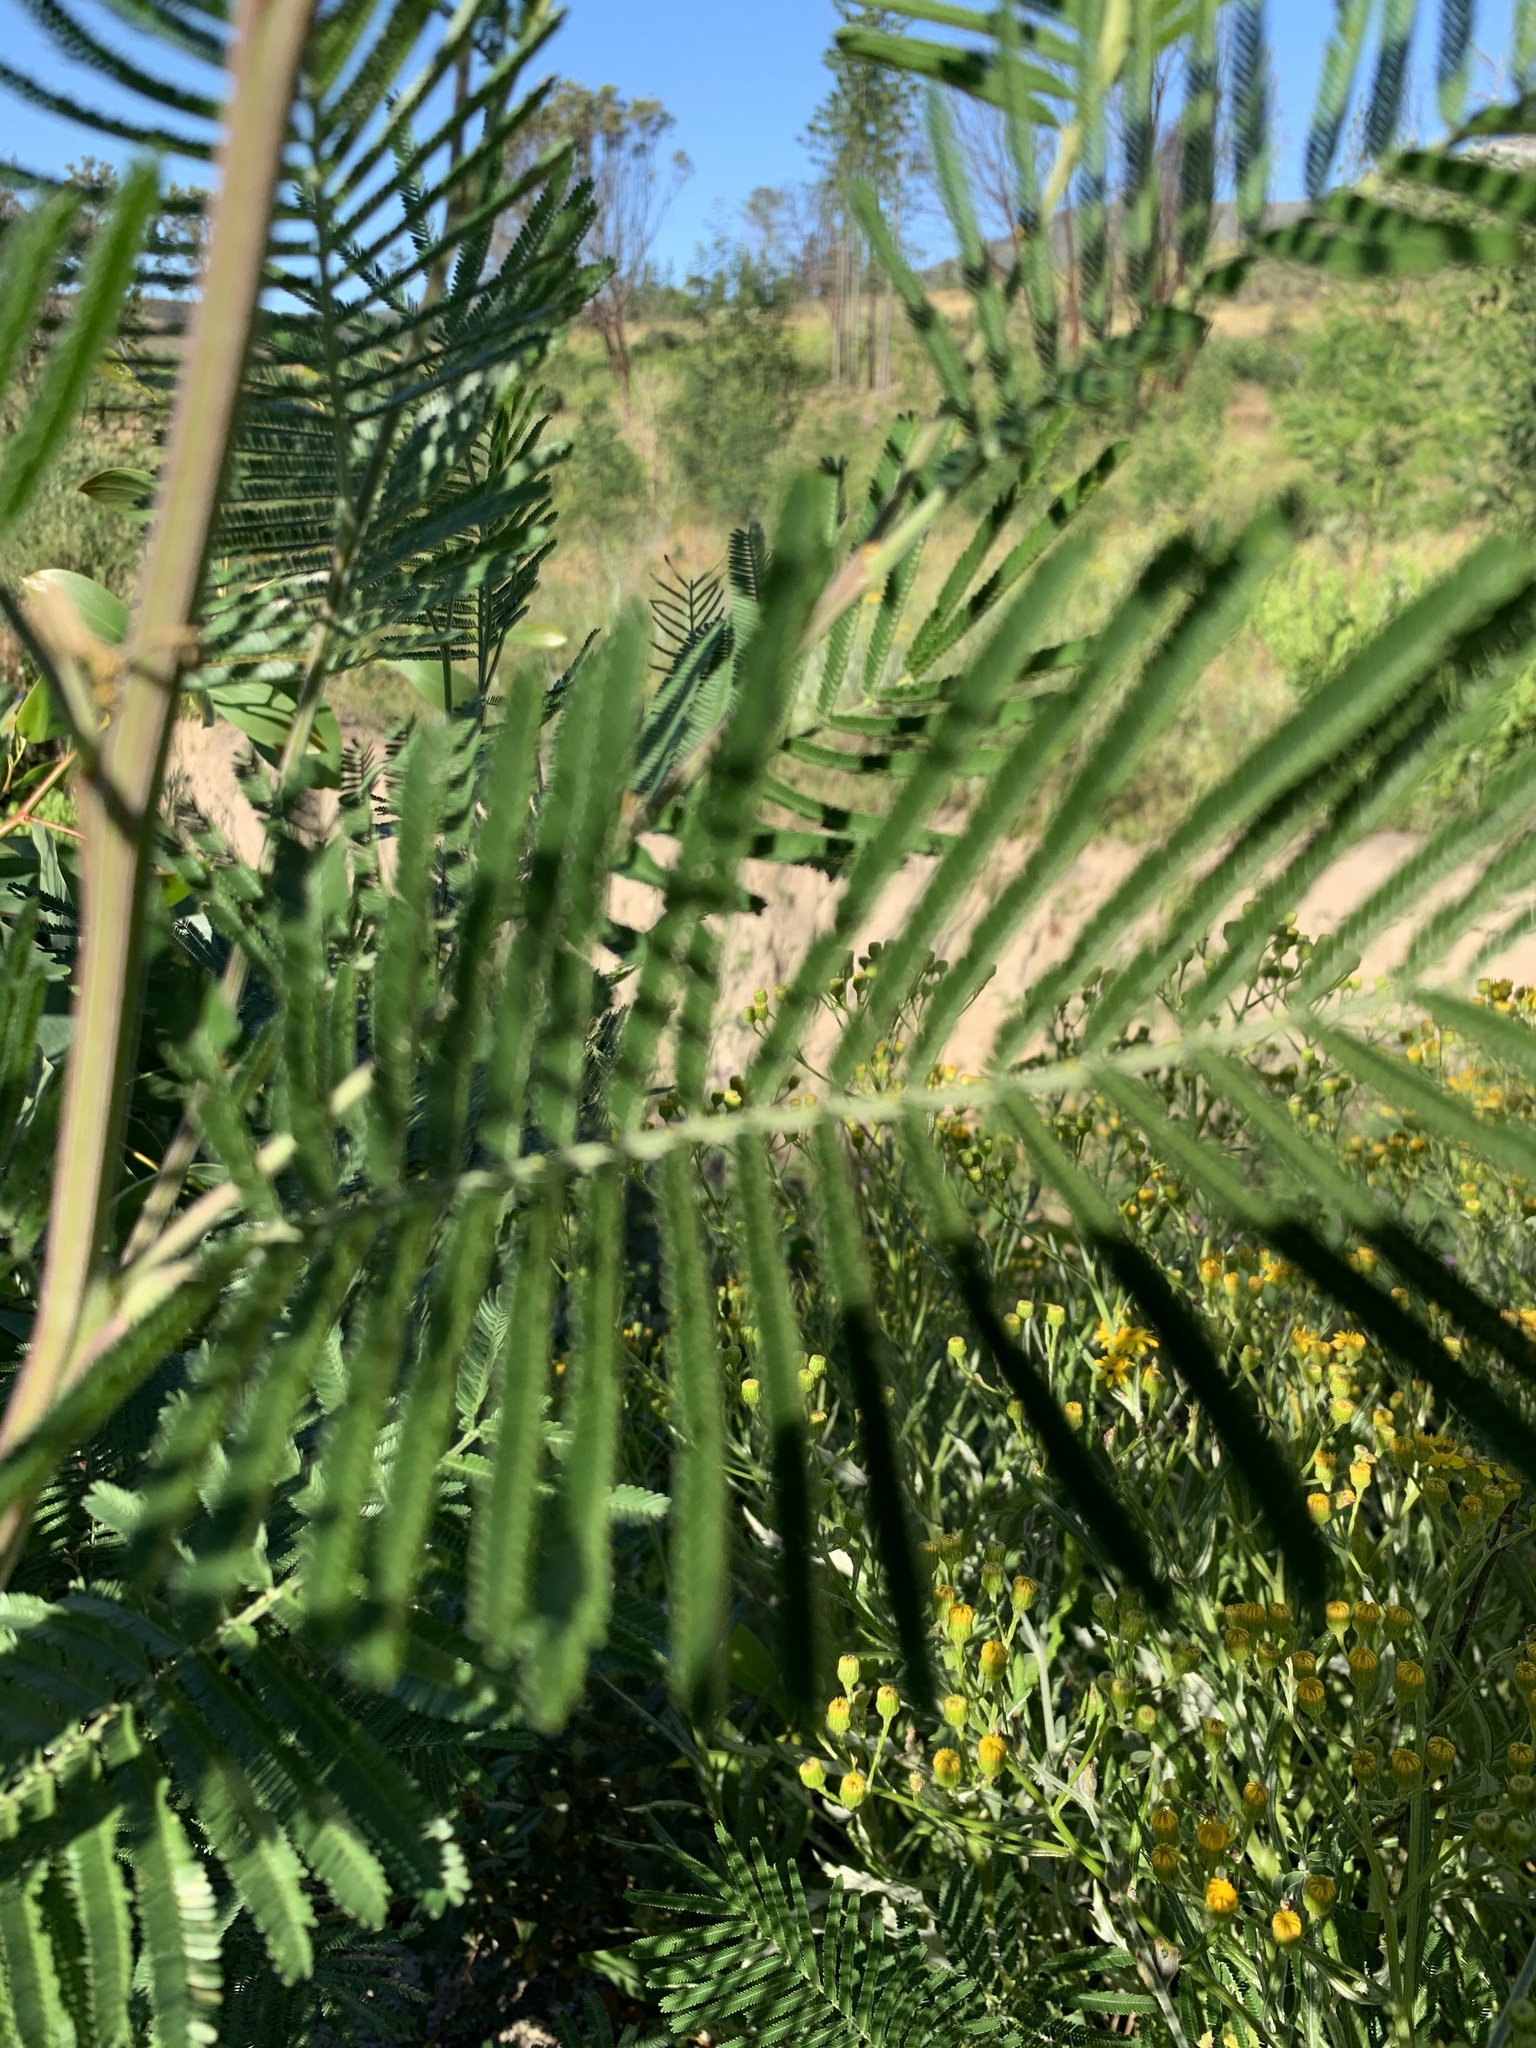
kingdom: Plantae
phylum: Tracheophyta
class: Magnoliopsida
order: Fabales
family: Fabaceae
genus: Acacia
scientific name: Acacia mearnsii
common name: Black wattle
